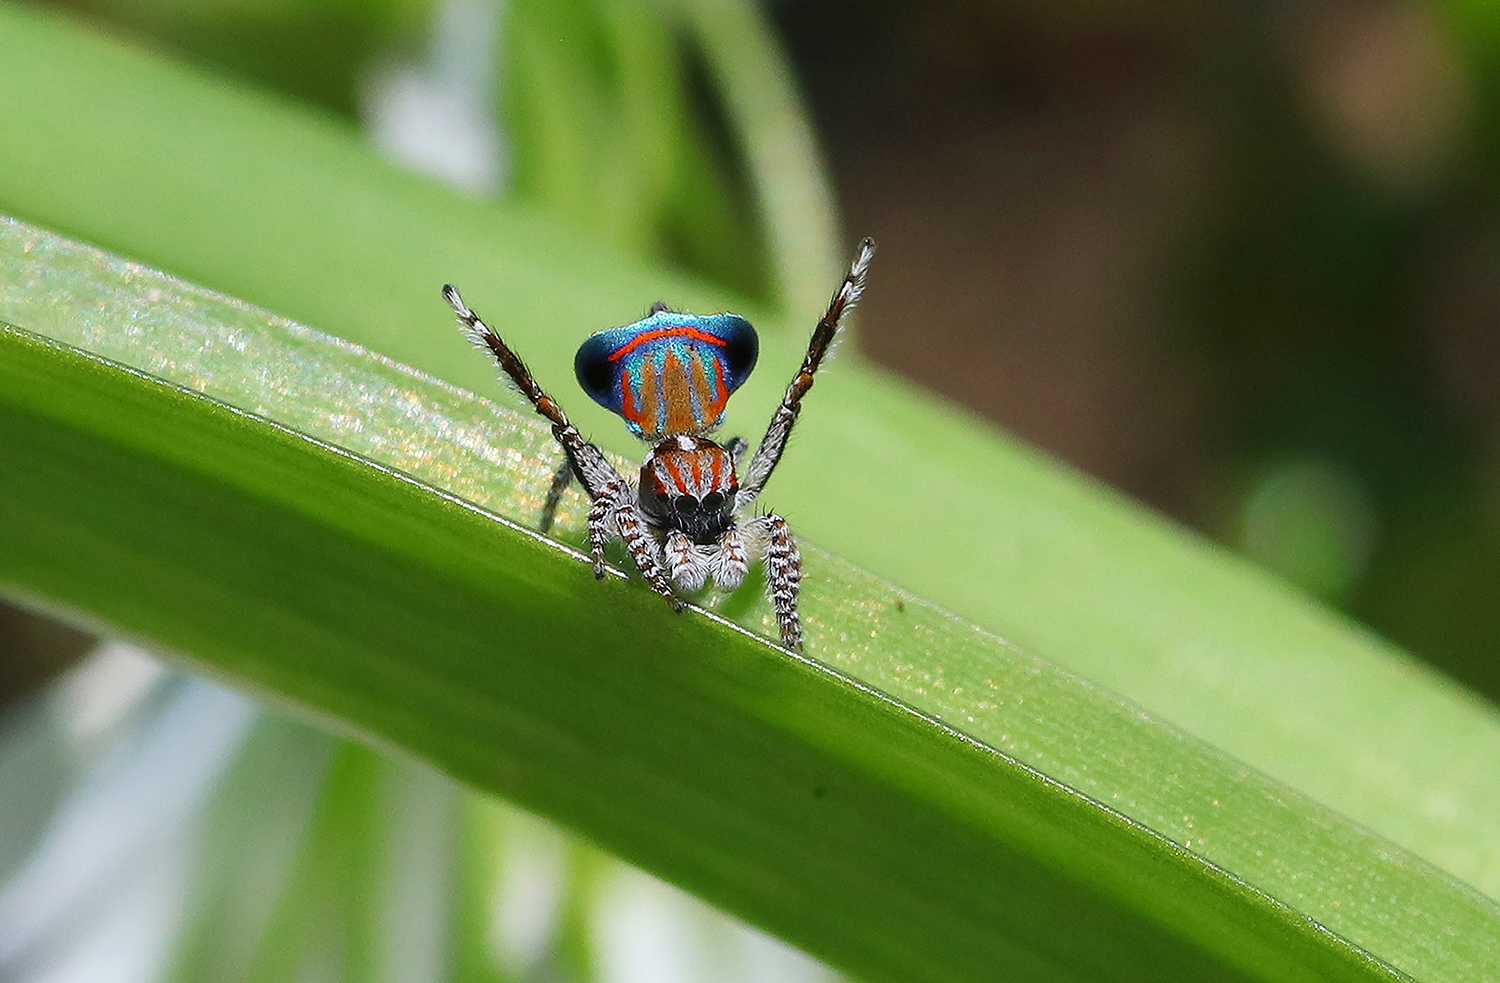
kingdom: Animalia
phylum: Arthropoda
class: Arachnida
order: Araneae
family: Salticidae
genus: Maratus
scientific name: Maratus tasmanicus
